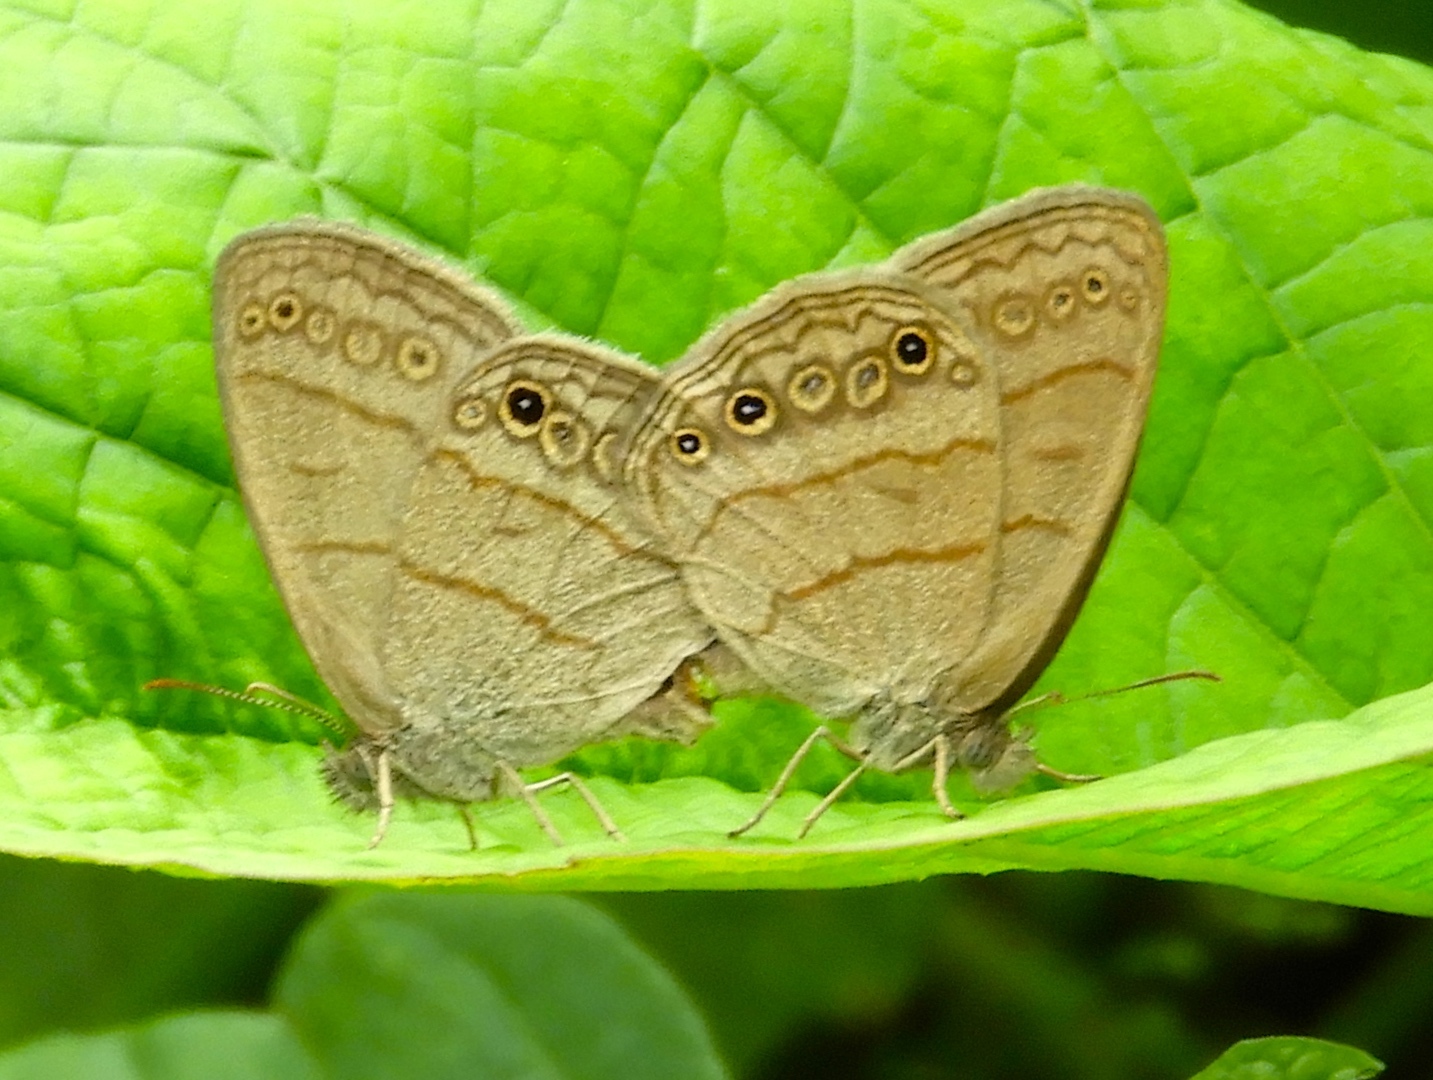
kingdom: Animalia
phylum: Arthropoda
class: Insecta
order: Lepidoptera
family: Nymphalidae
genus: Hermeuptychia
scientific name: Hermeuptychia
